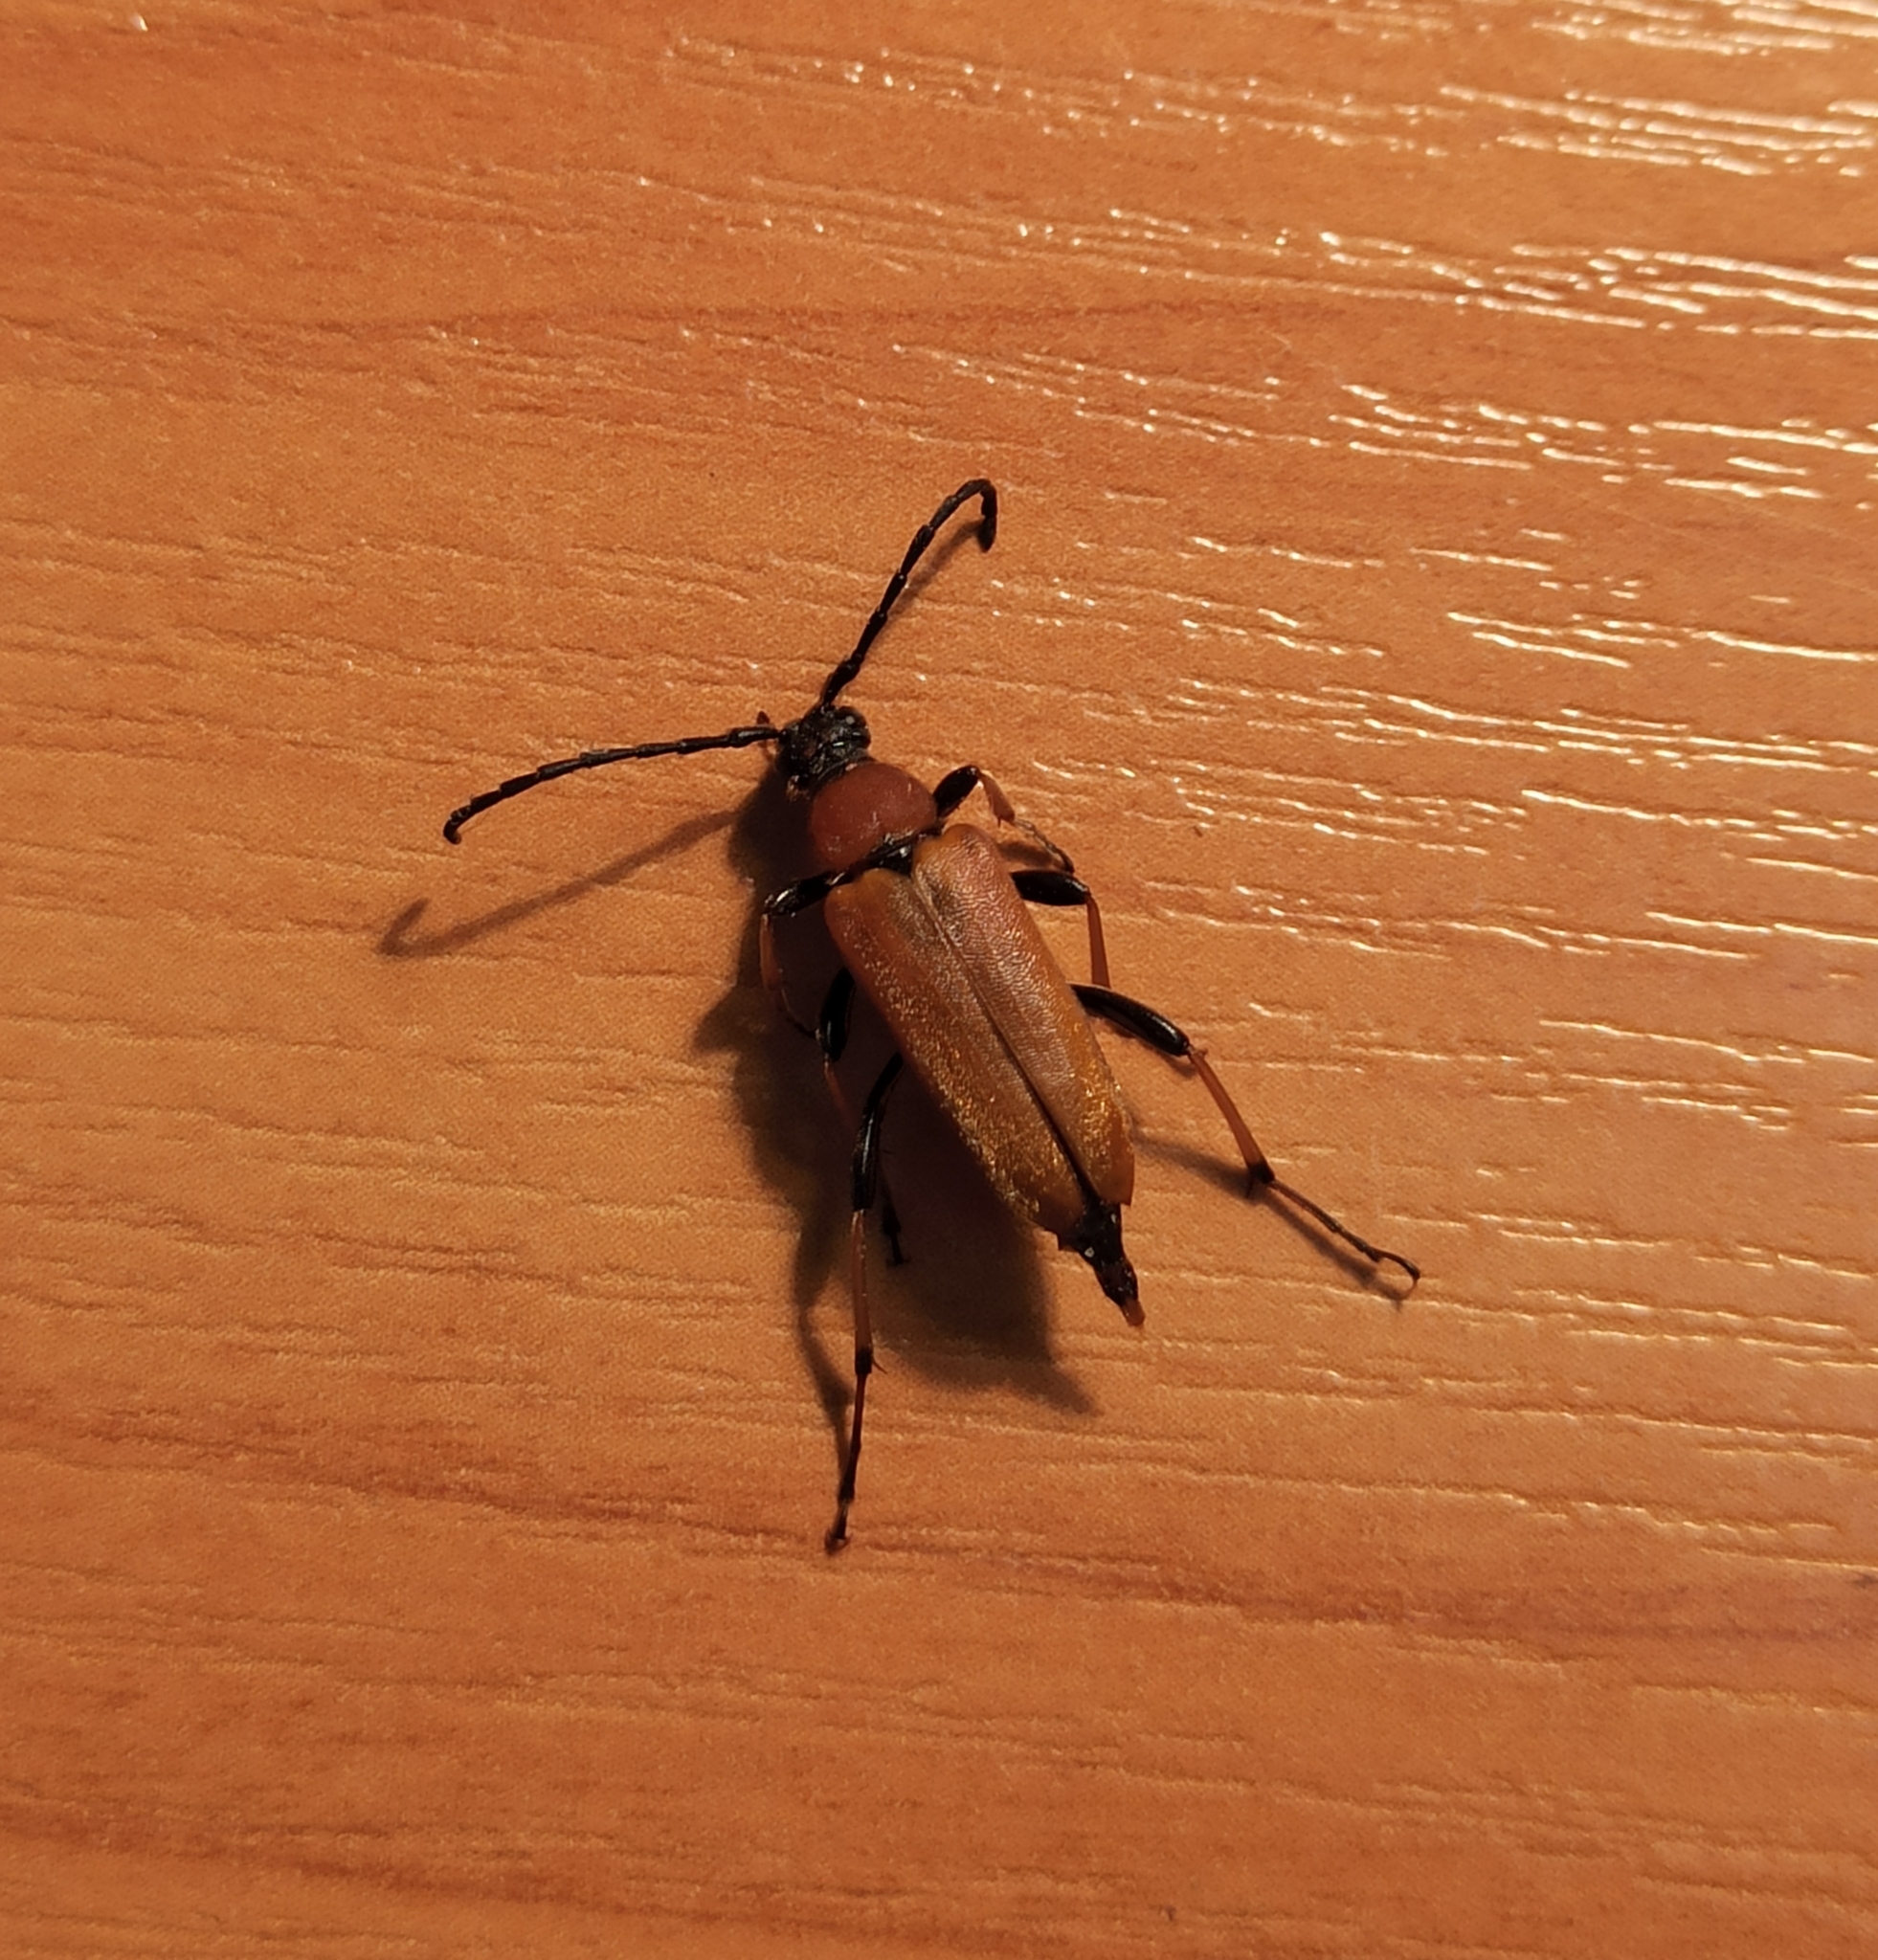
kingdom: Animalia
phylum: Arthropoda
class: Insecta
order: Coleoptera
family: Cerambycidae
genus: Stictoleptura
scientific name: Stictoleptura rubra
